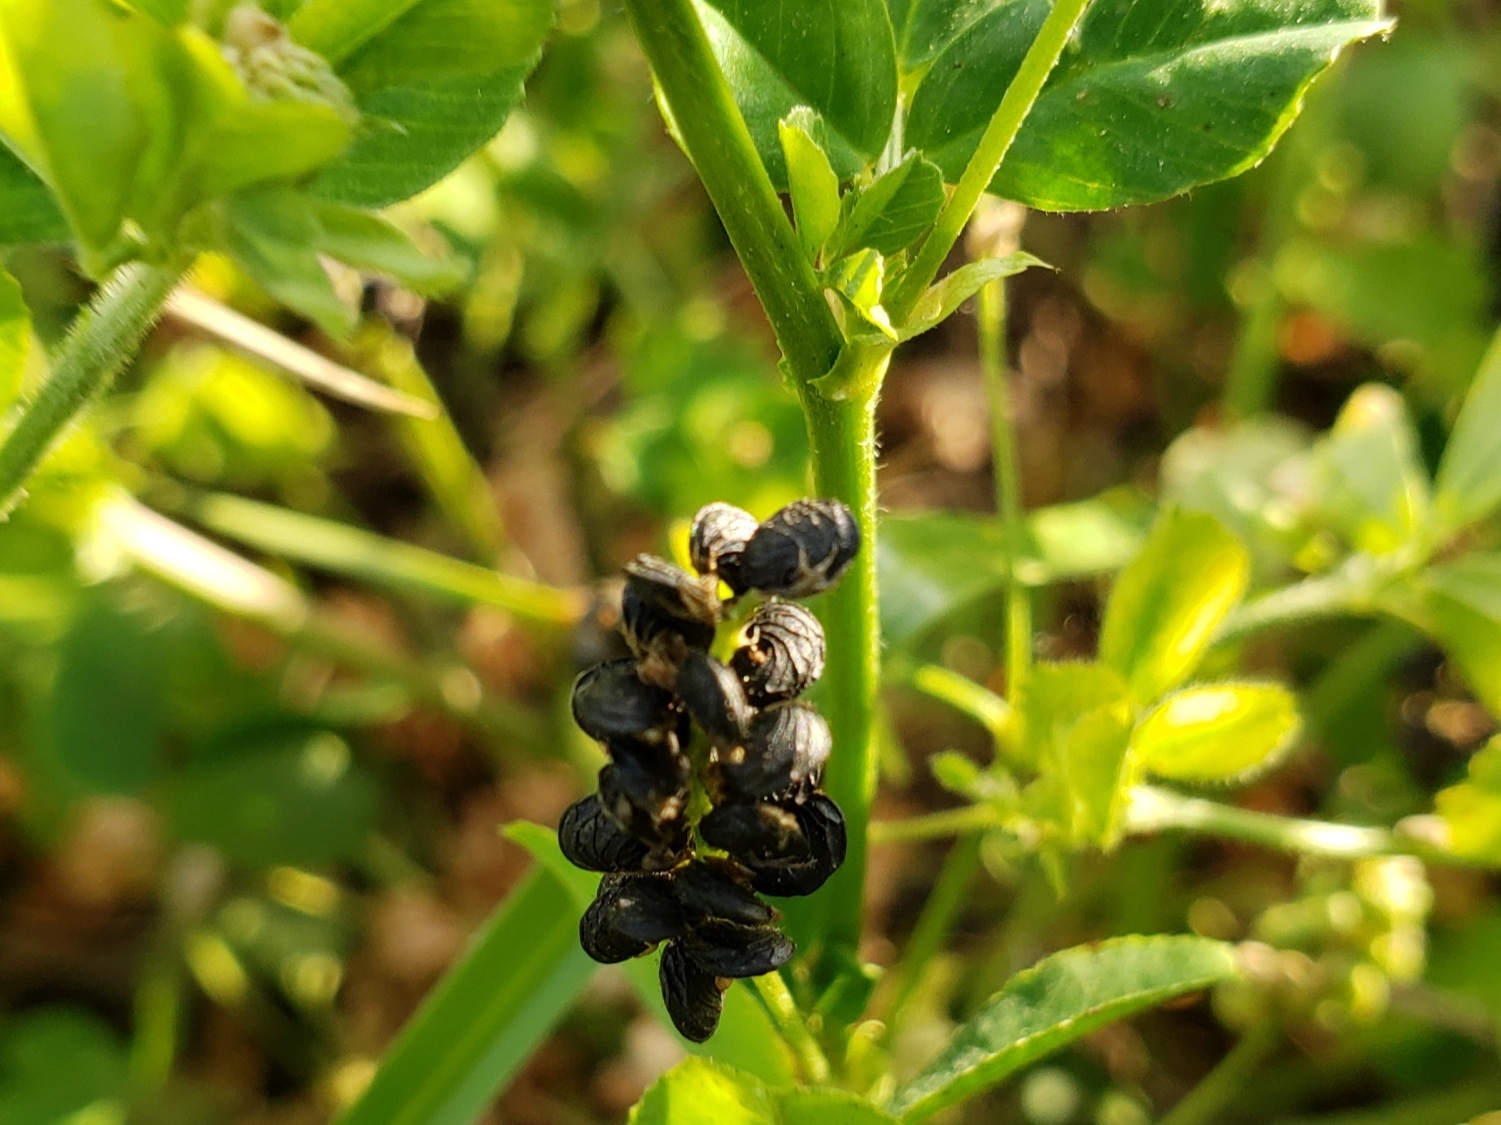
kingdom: Plantae
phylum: Tracheophyta
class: Magnoliopsida
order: Fabales
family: Fabaceae
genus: Medicago
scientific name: Medicago lupulina
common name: Black medick
